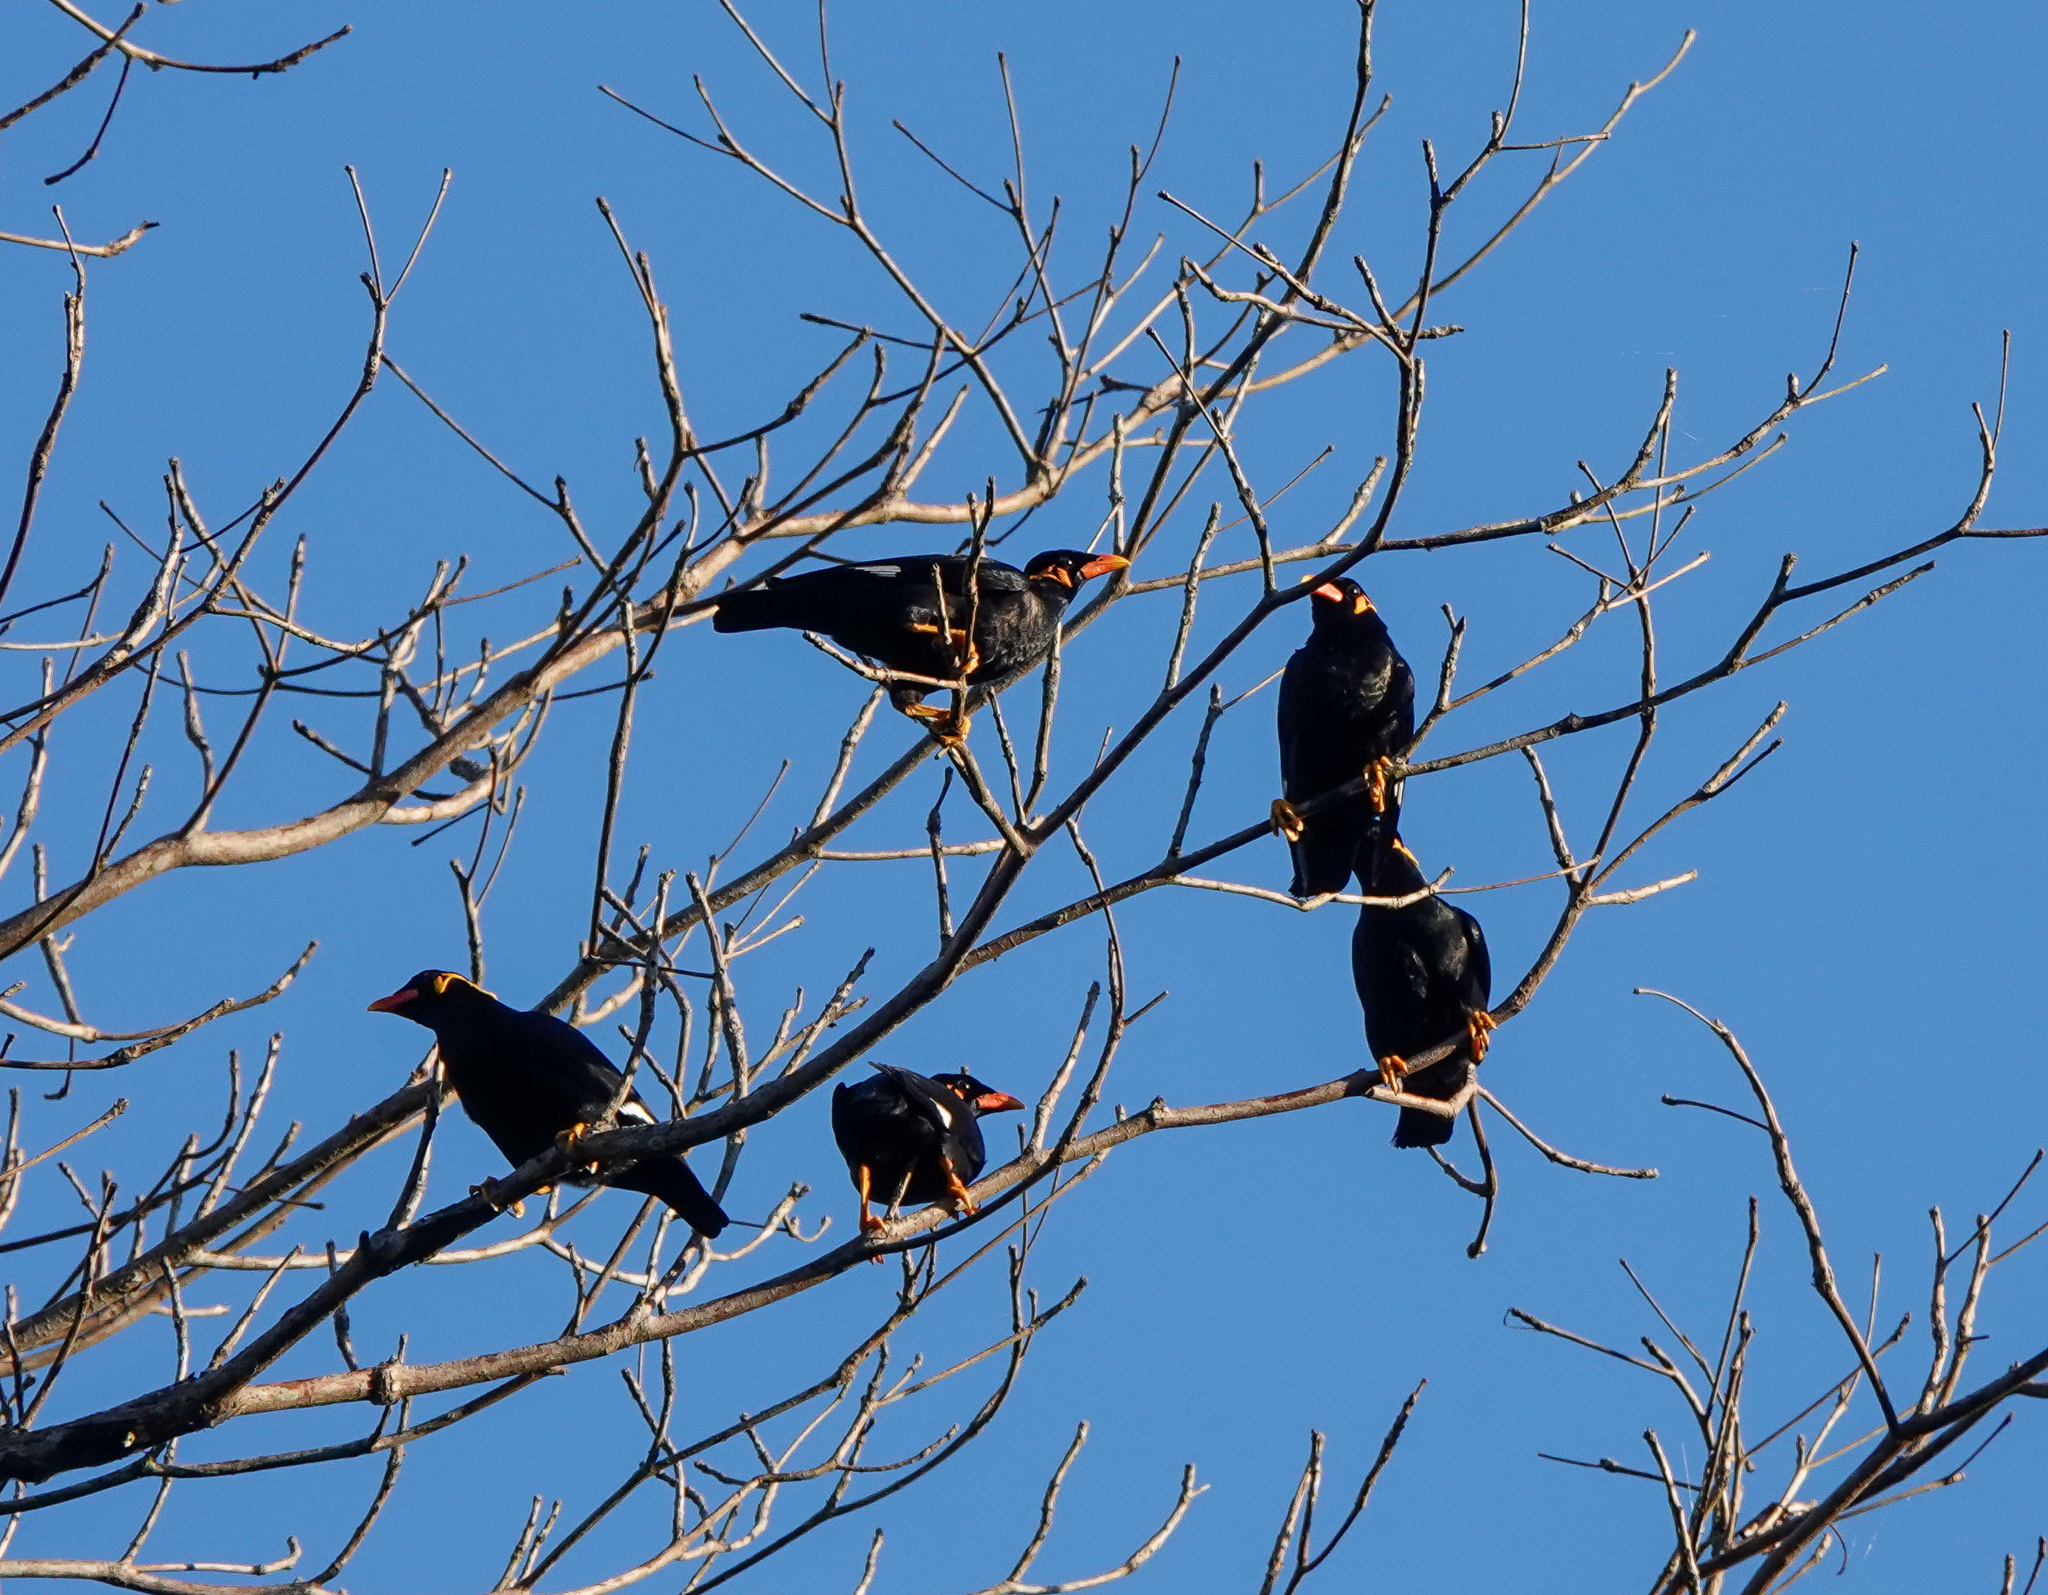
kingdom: Animalia
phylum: Chordata
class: Aves
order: Passeriformes
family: Sturnidae
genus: Gracula
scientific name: Gracula religiosa
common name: Common hill myna
